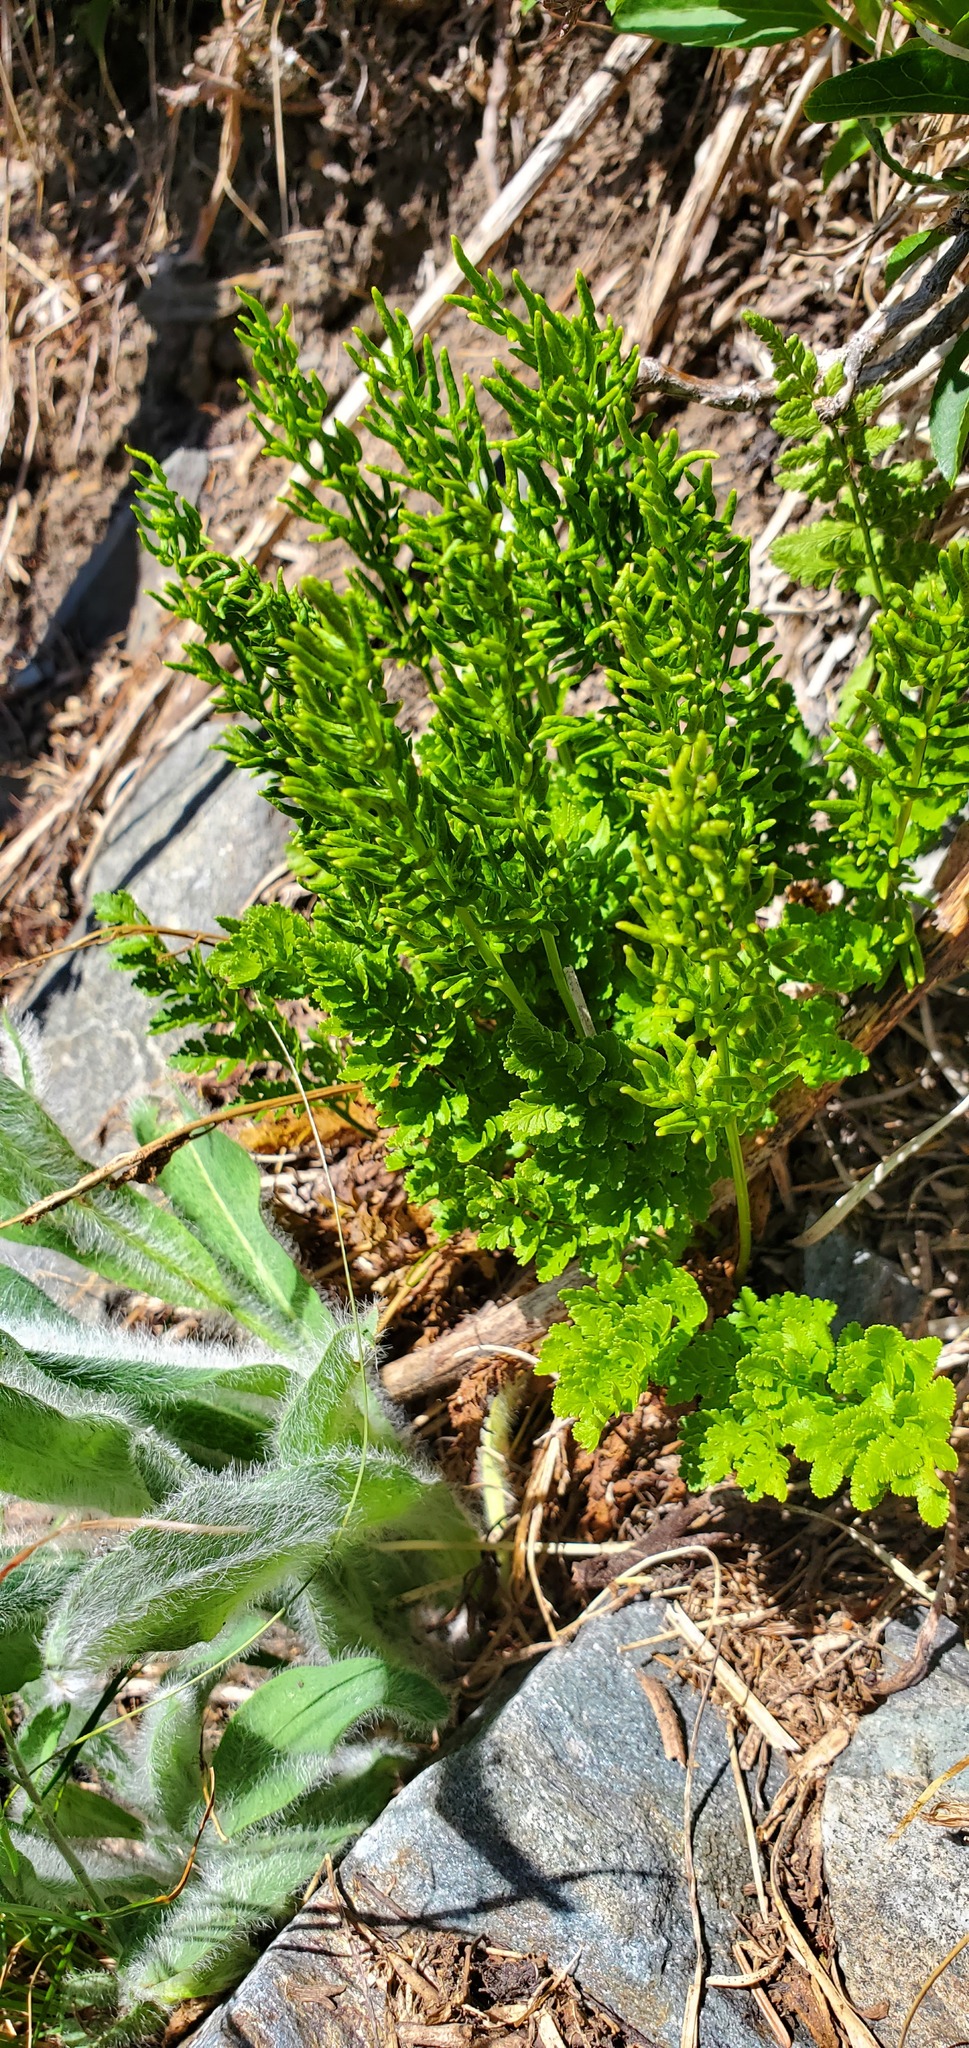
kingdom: Plantae
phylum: Tracheophyta
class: Polypodiopsida
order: Polypodiales
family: Pteridaceae
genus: Cryptogramma
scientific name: Cryptogramma acrostichoides
